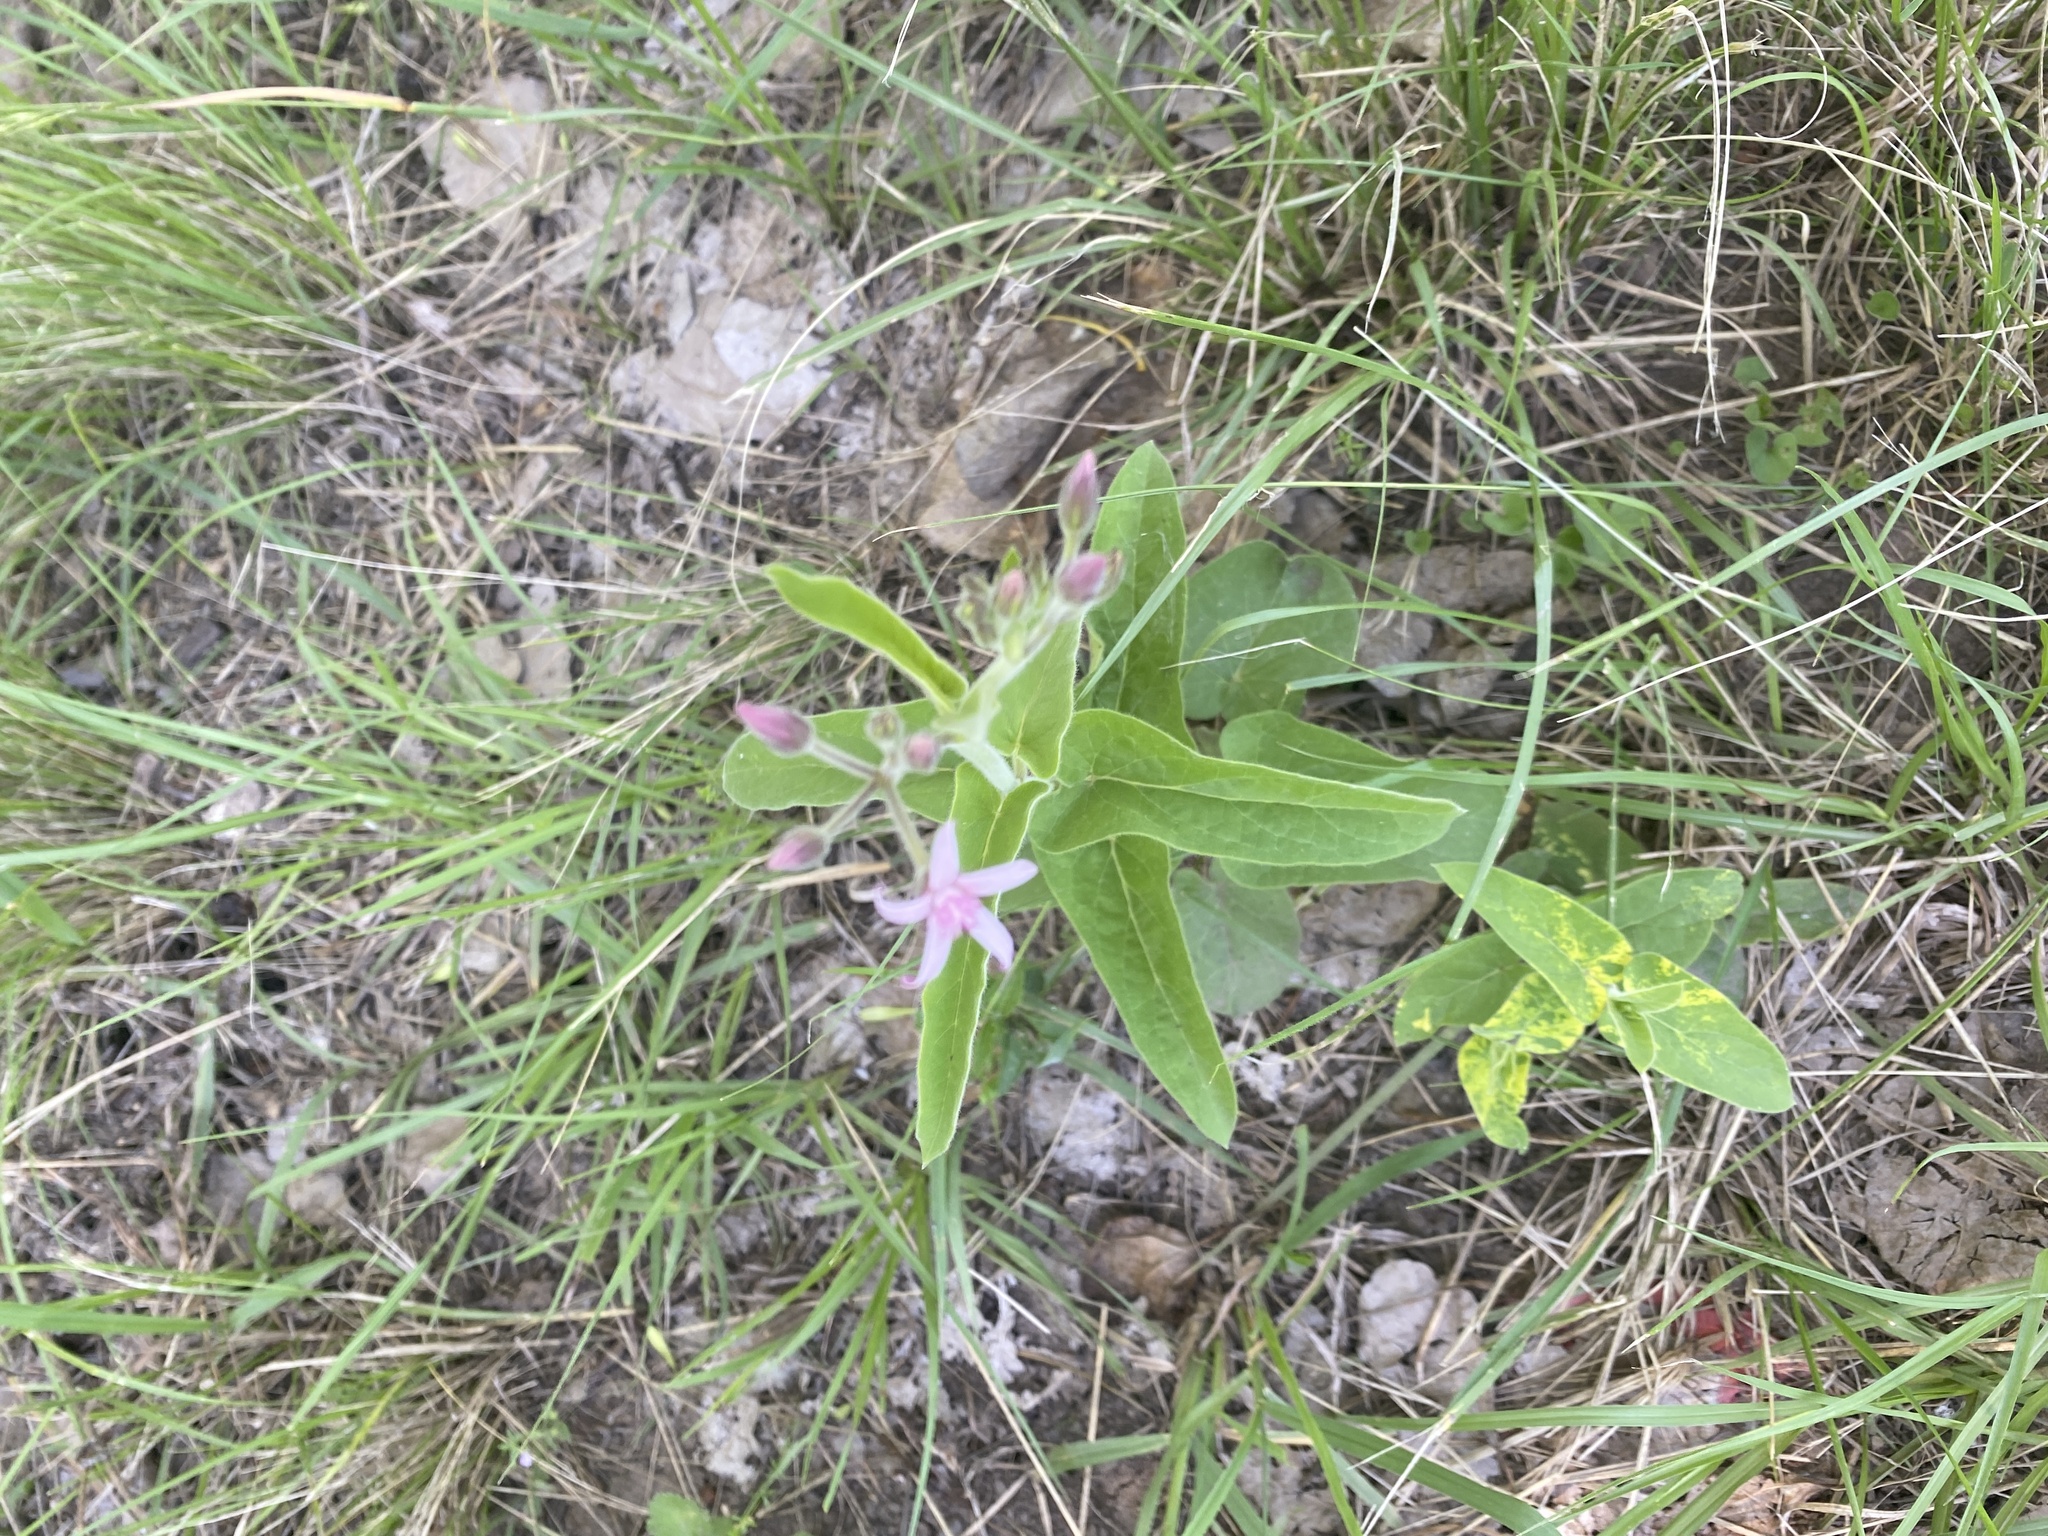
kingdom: Plantae
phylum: Tracheophyta
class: Magnoliopsida
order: Gentianales
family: Apocynaceae
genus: Oxypetalum
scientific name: Oxypetalum solanoides
